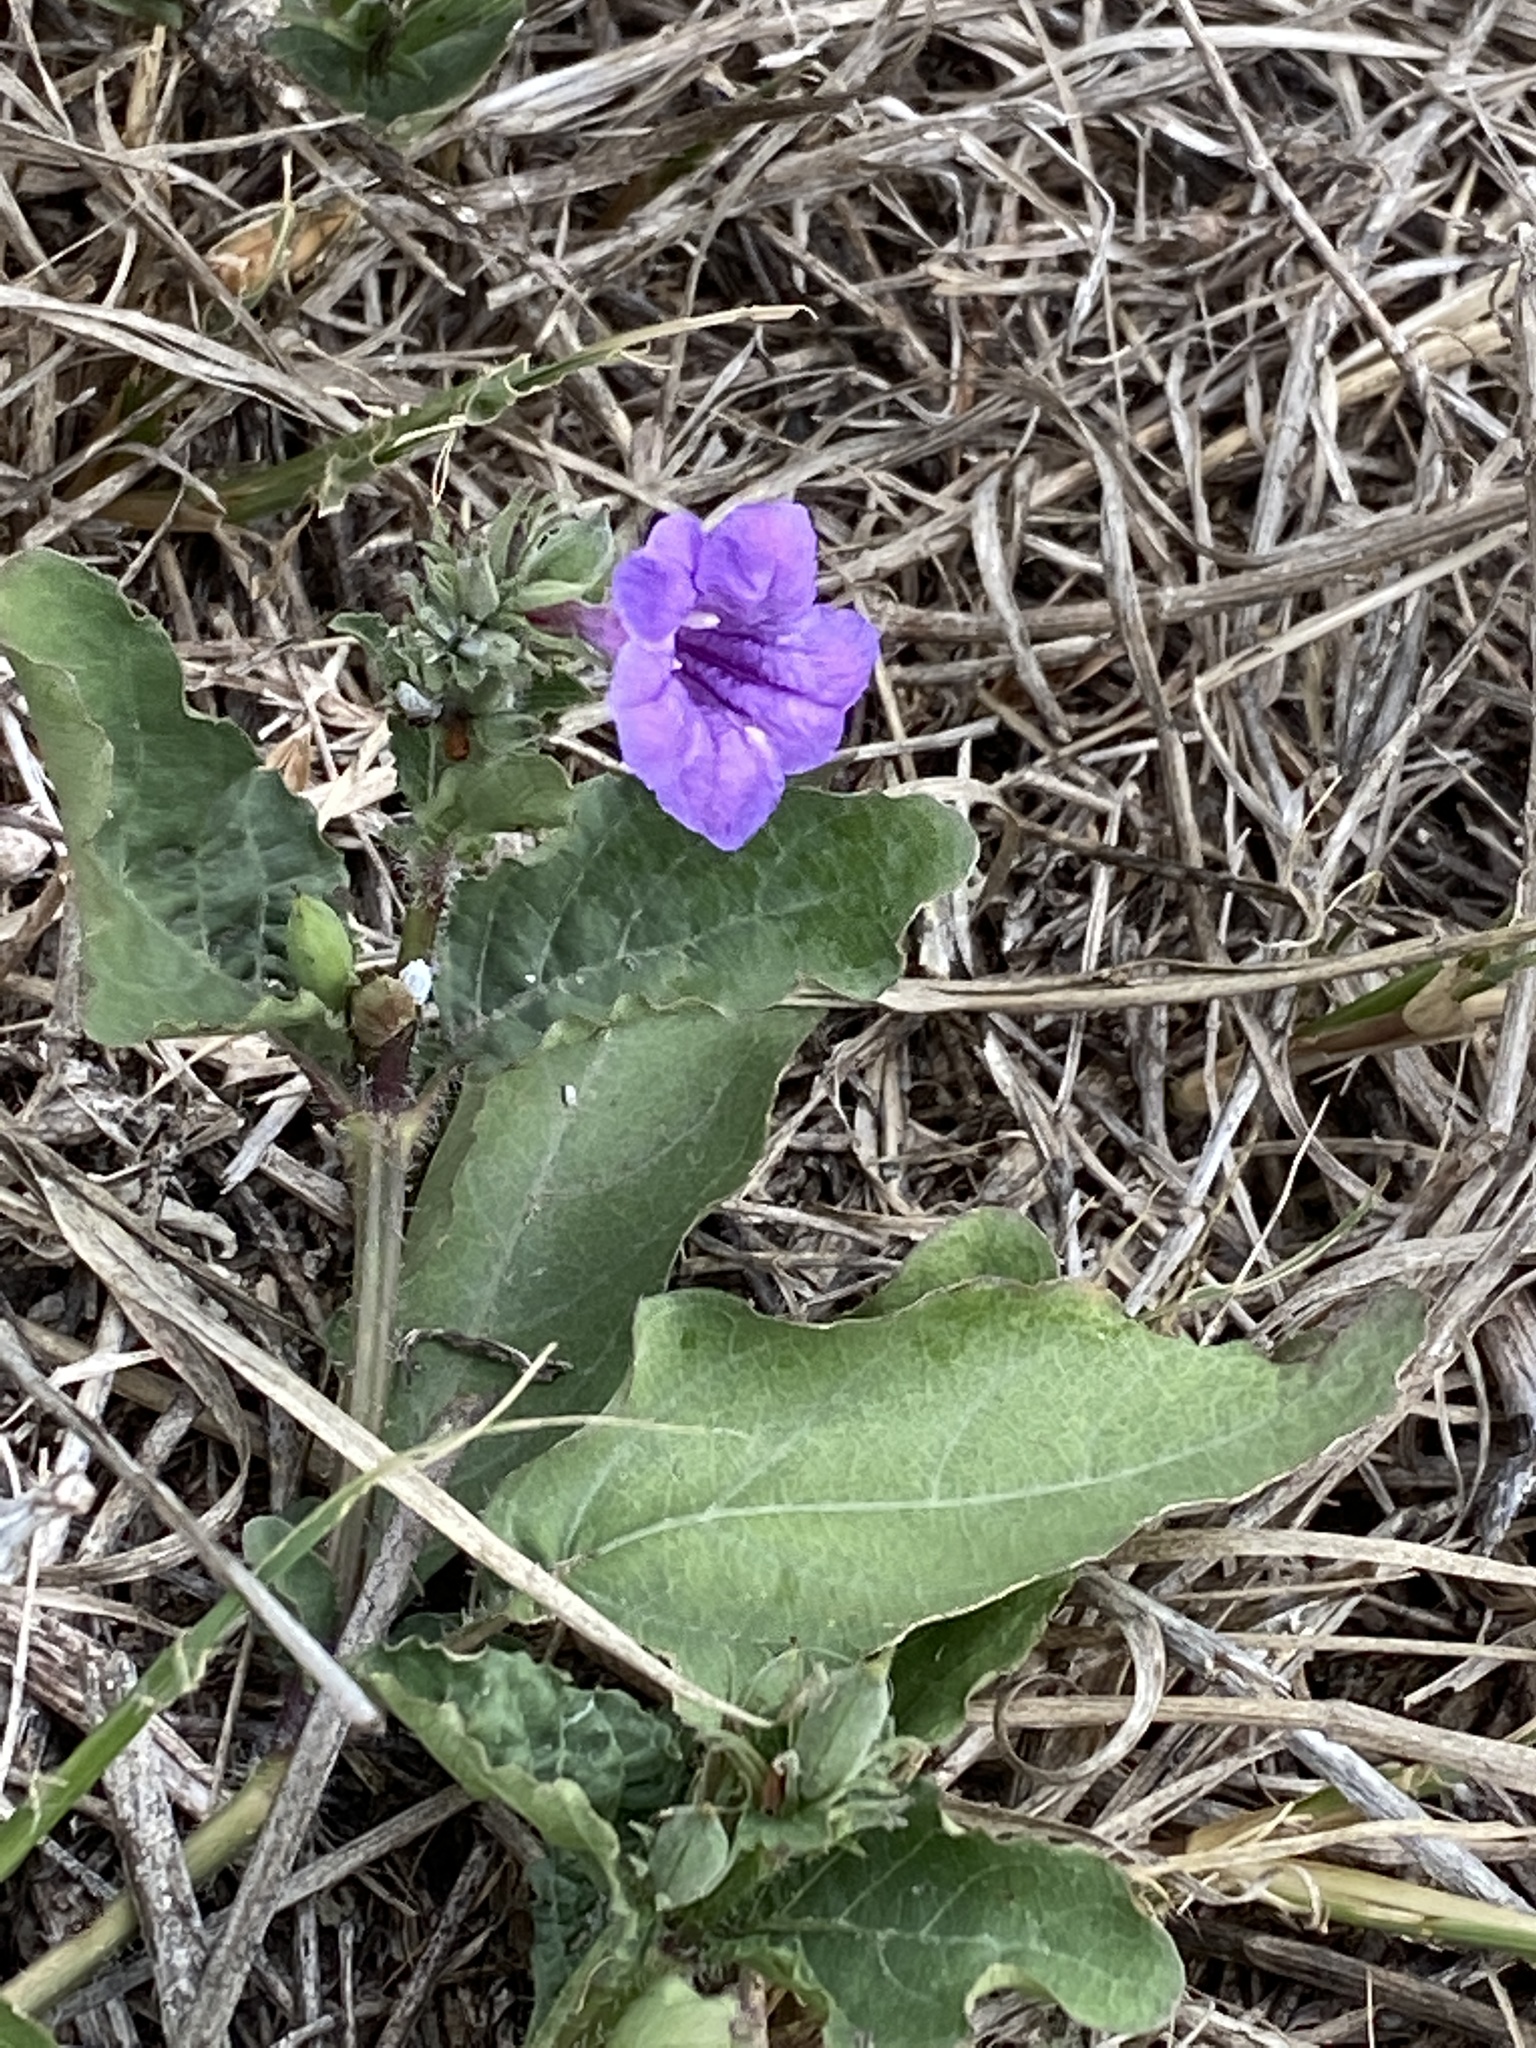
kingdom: Plantae
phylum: Tracheophyta
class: Magnoliopsida
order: Lamiales
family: Acanthaceae
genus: Ruellia
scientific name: Ruellia ciliatiflora
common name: Hairyflower wild petunia
